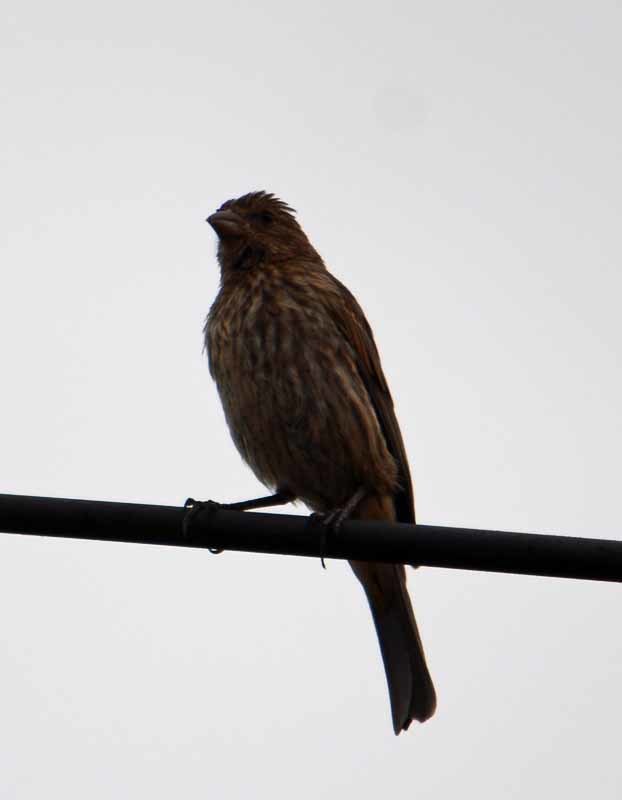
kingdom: Animalia
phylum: Chordata
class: Aves
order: Passeriformes
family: Fringillidae
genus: Haemorhous
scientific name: Haemorhous mexicanus
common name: House finch
